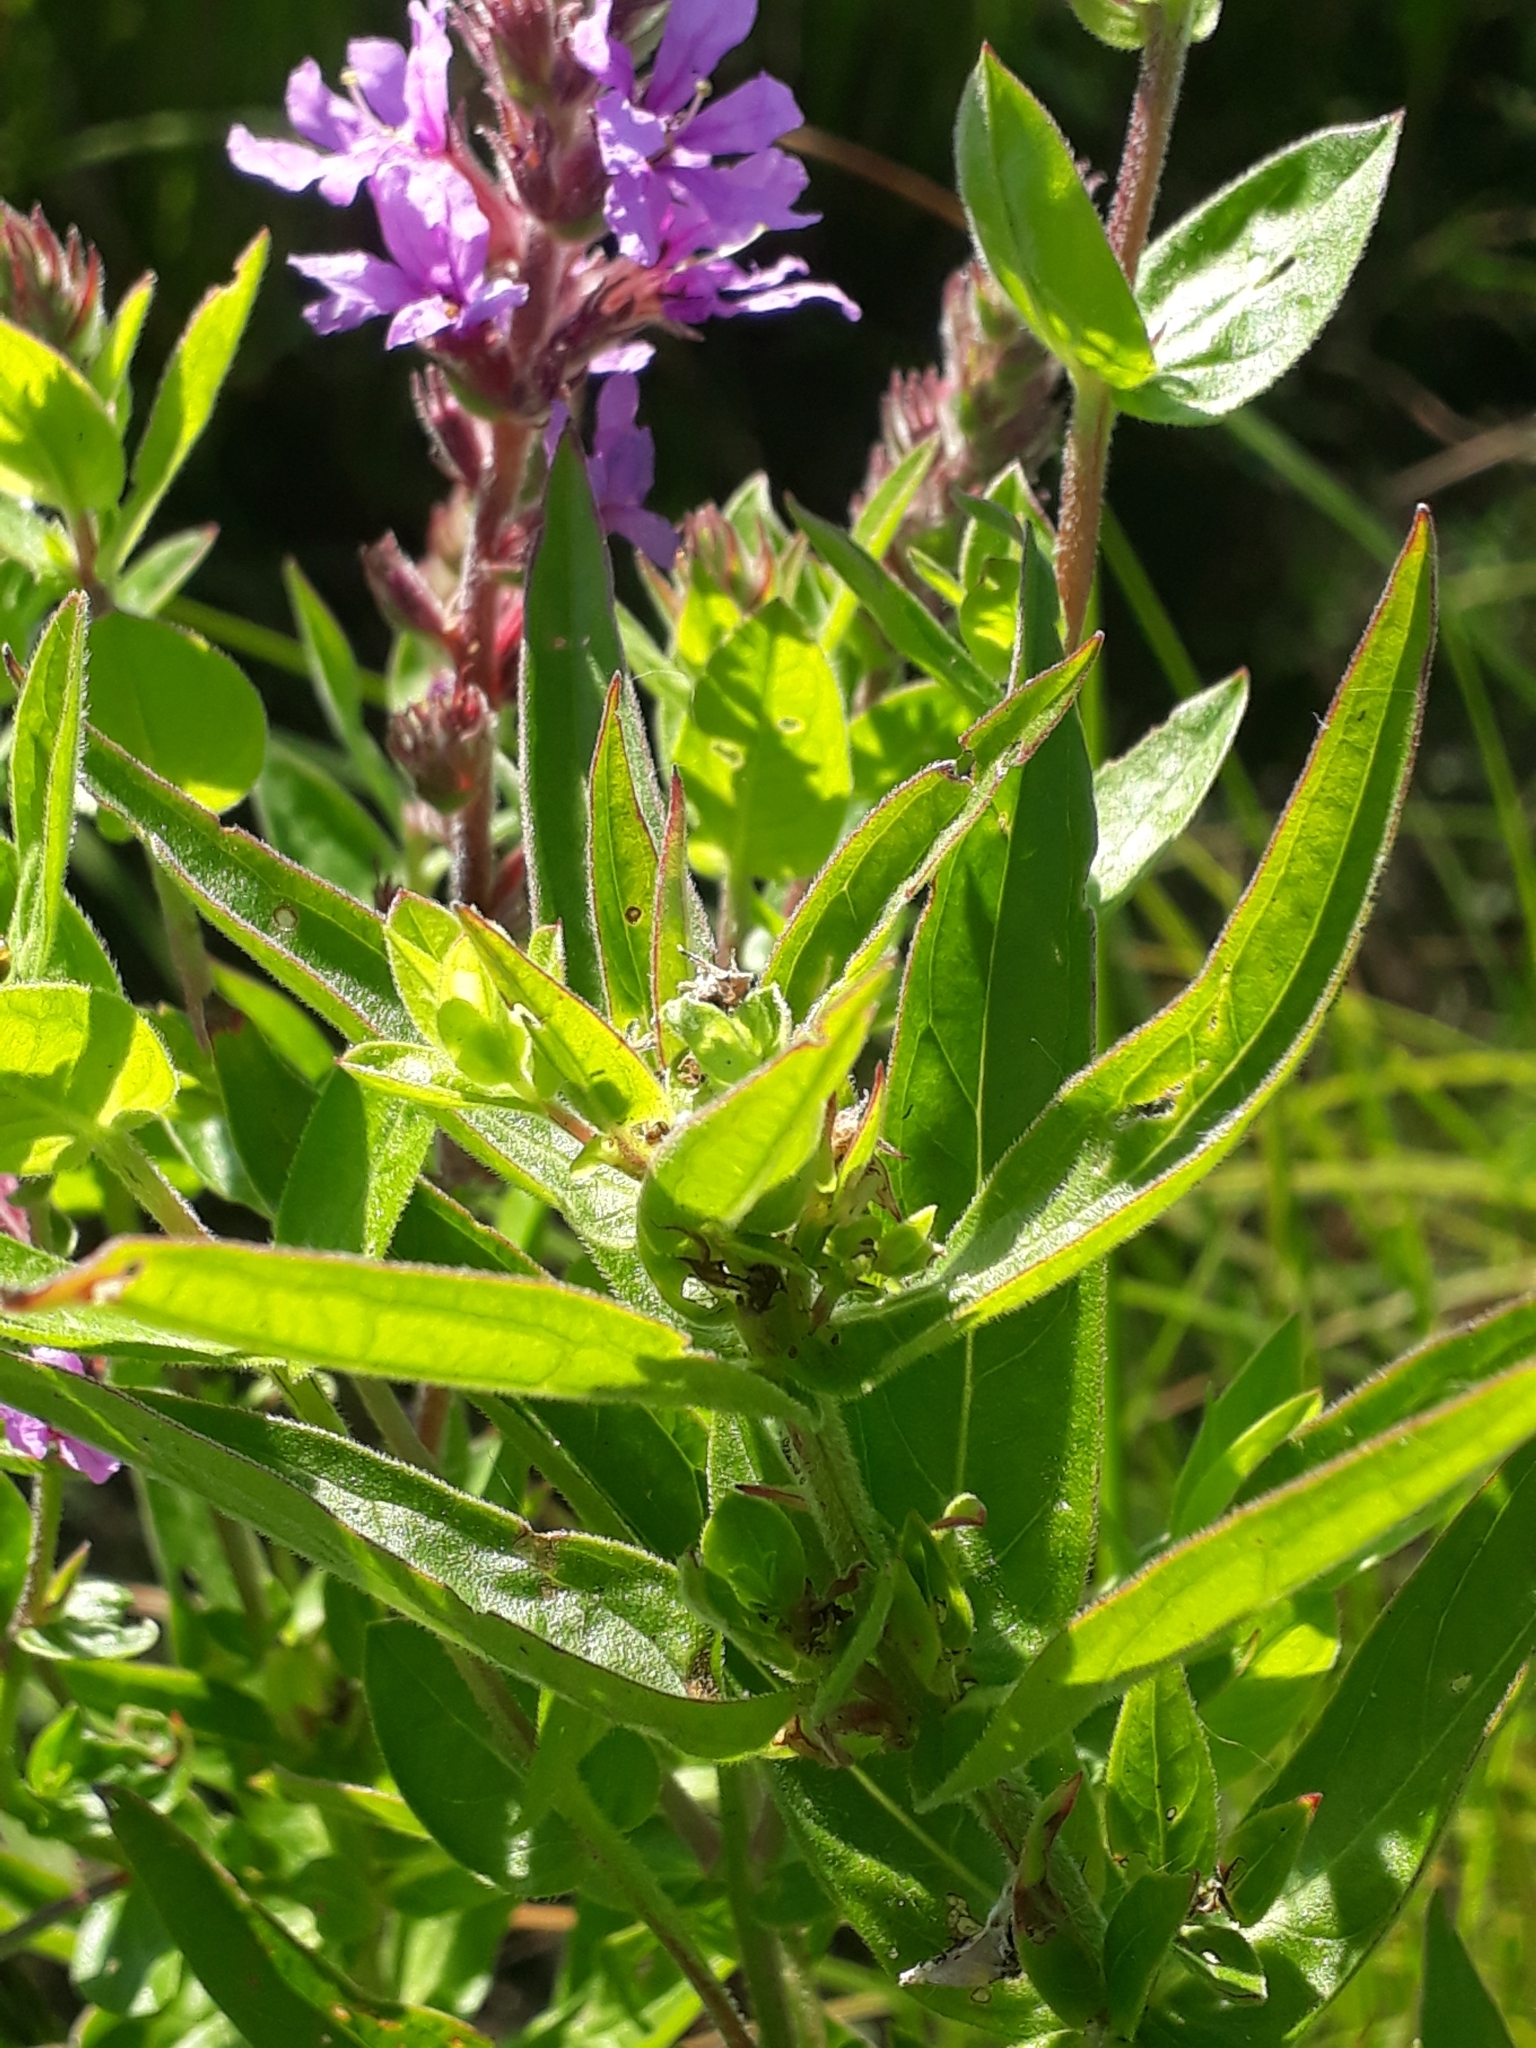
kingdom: Plantae
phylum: Tracheophyta
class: Magnoliopsida
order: Myrtales
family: Lythraceae
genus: Lythrum
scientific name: Lythrum salicaria
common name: Purple loosestrife
